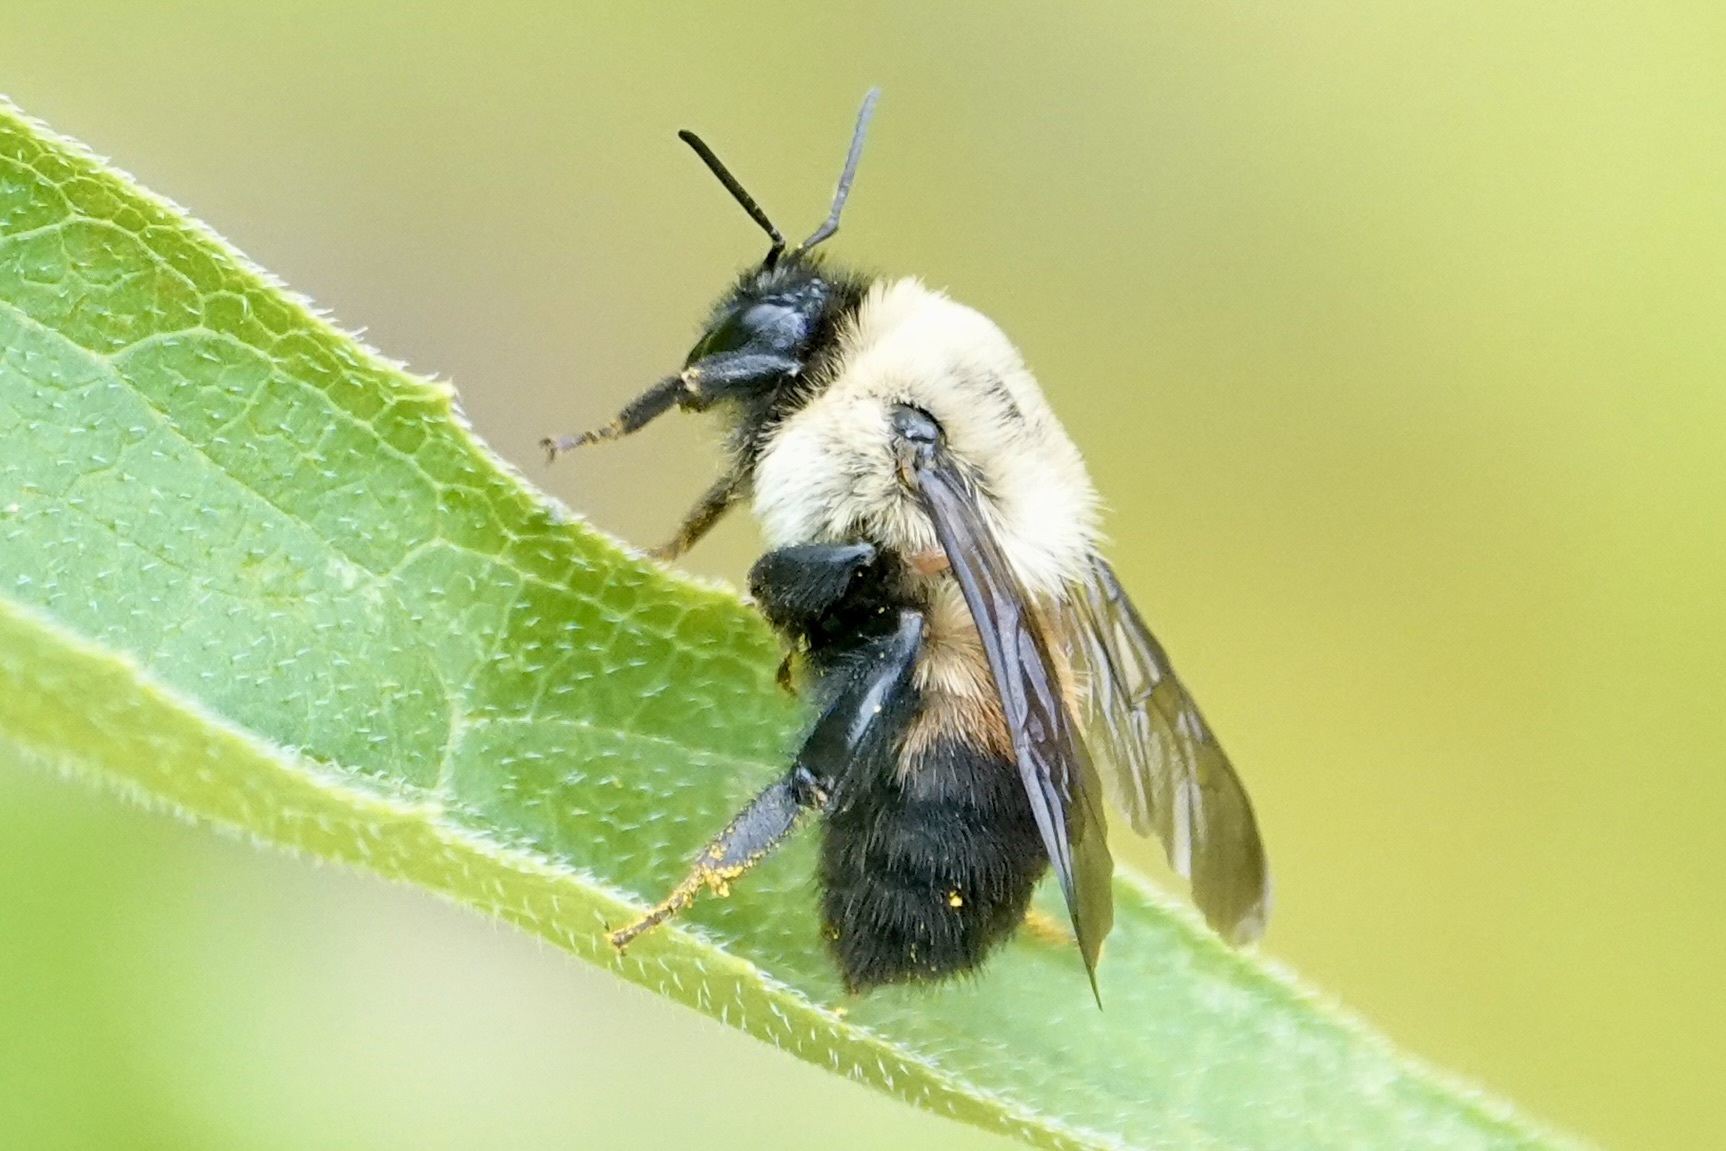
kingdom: Animalia
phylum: Arthropoda
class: Insecta
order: Hymenoptera
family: Apidae
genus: Bombus
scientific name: Bombus griseocollis
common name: Brown-belted bumble bee
